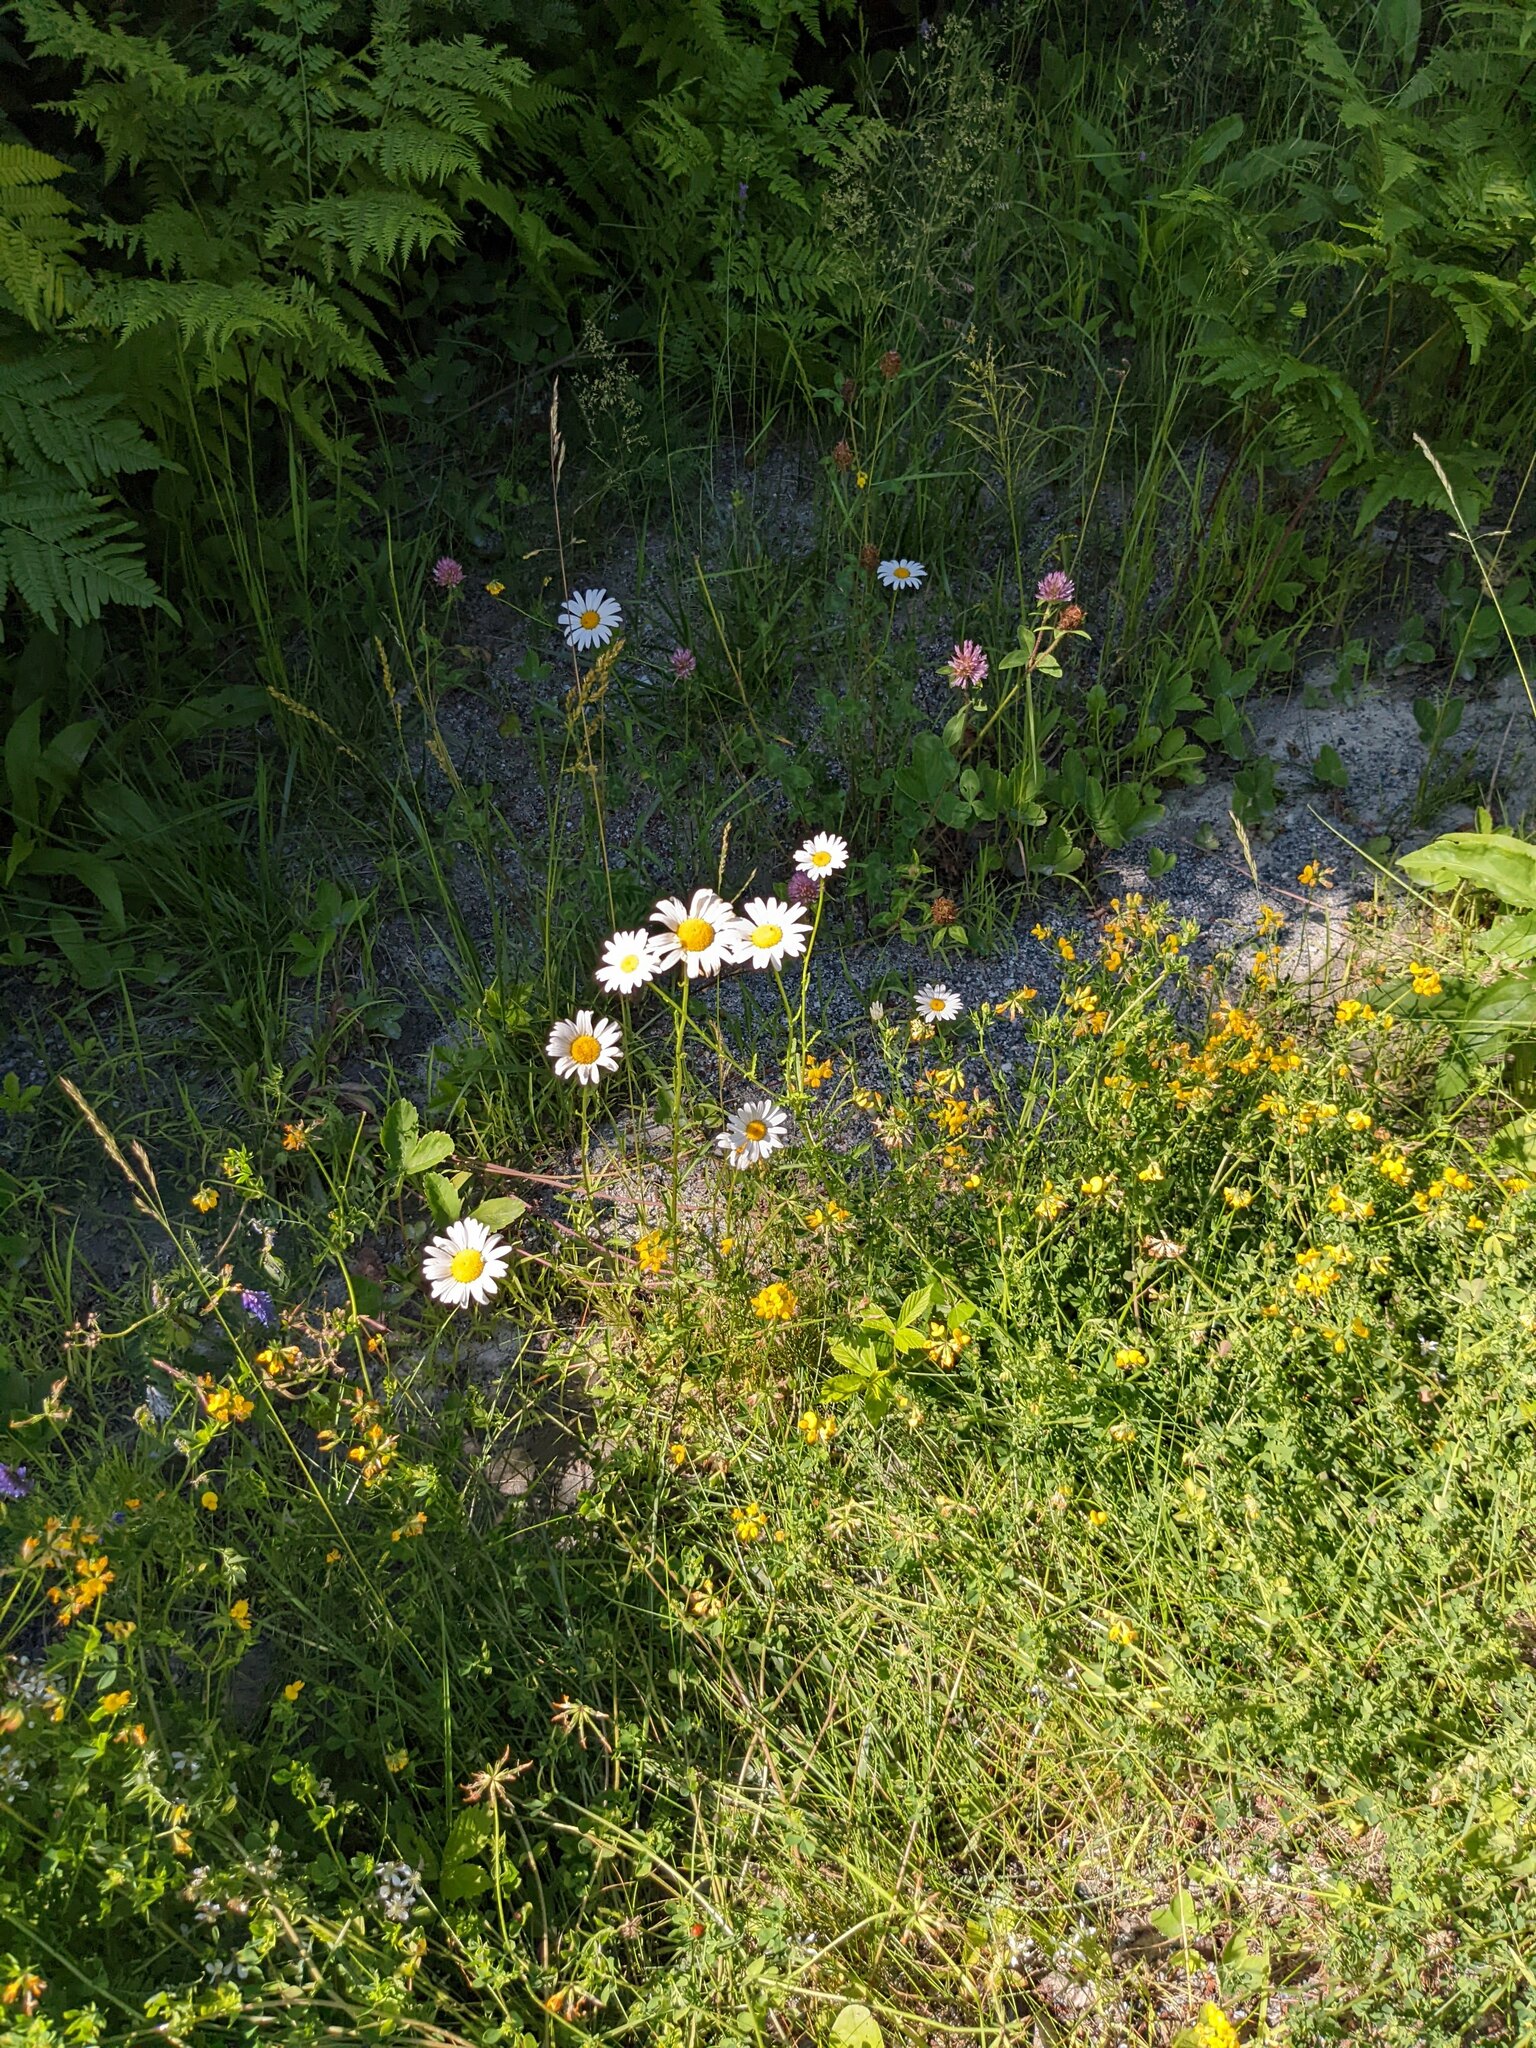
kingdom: Plantae
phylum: Tracheophyta
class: Magnoliopsida
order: Asterales
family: Asteraceae
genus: Leucanthemum
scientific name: Leucanthemum vulgare
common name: Oxeye daisy
